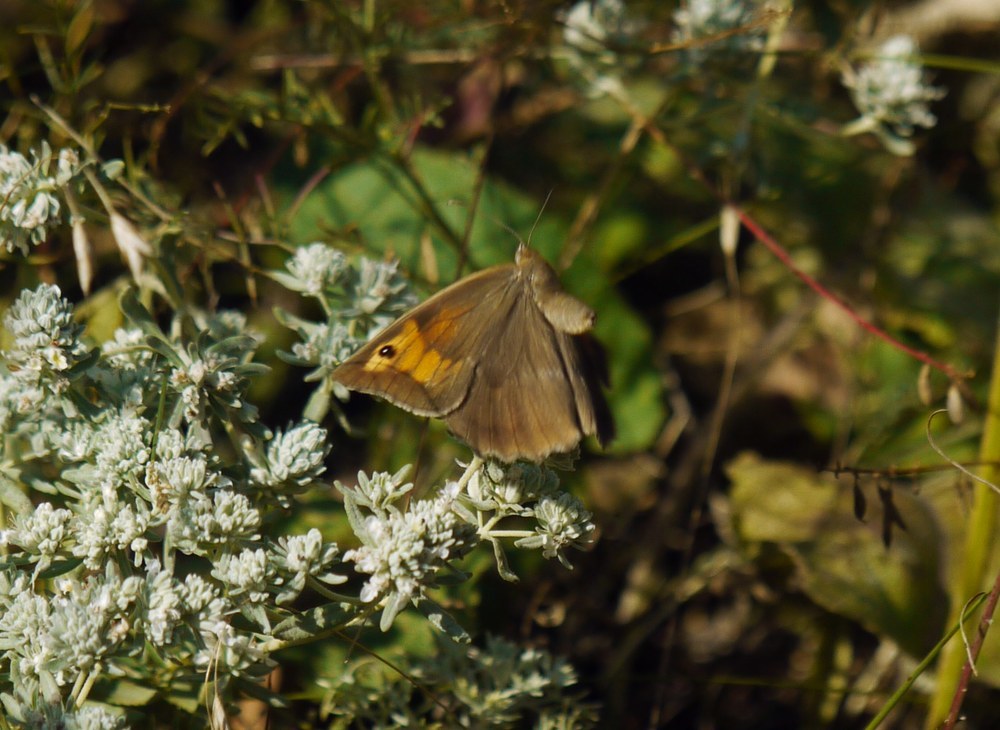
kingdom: Animalia
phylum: Arthropoda
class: Insecta
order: Lepidoptera
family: Nymphalidae
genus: Maniola
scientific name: Maniola jurtina
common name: Meadow brown
